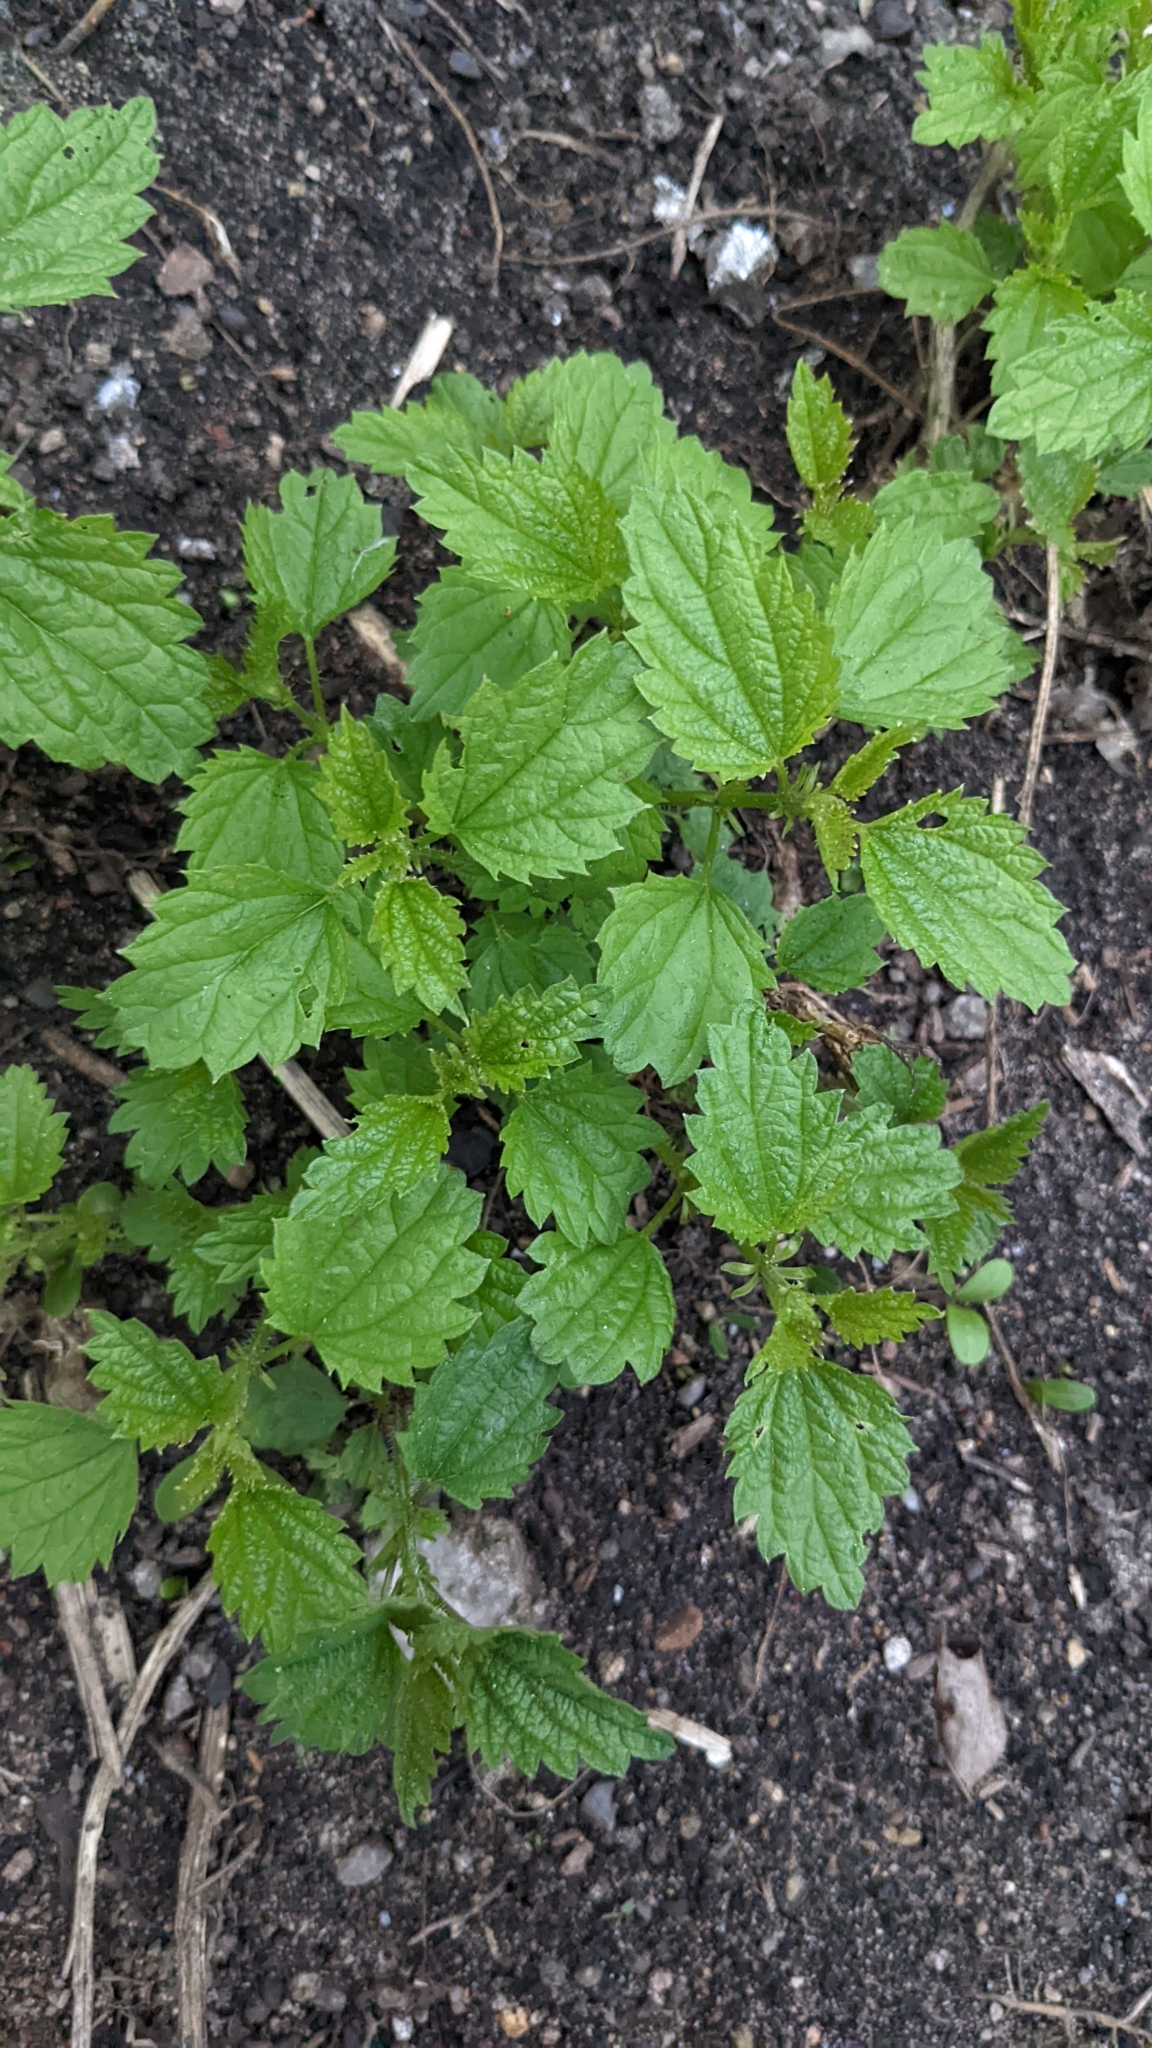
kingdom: Plantae
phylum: Tracheophyta
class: Magnoliopsida
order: Rosales
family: Urticaceae
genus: Urtica
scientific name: Urtica dioica
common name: Common nettle
